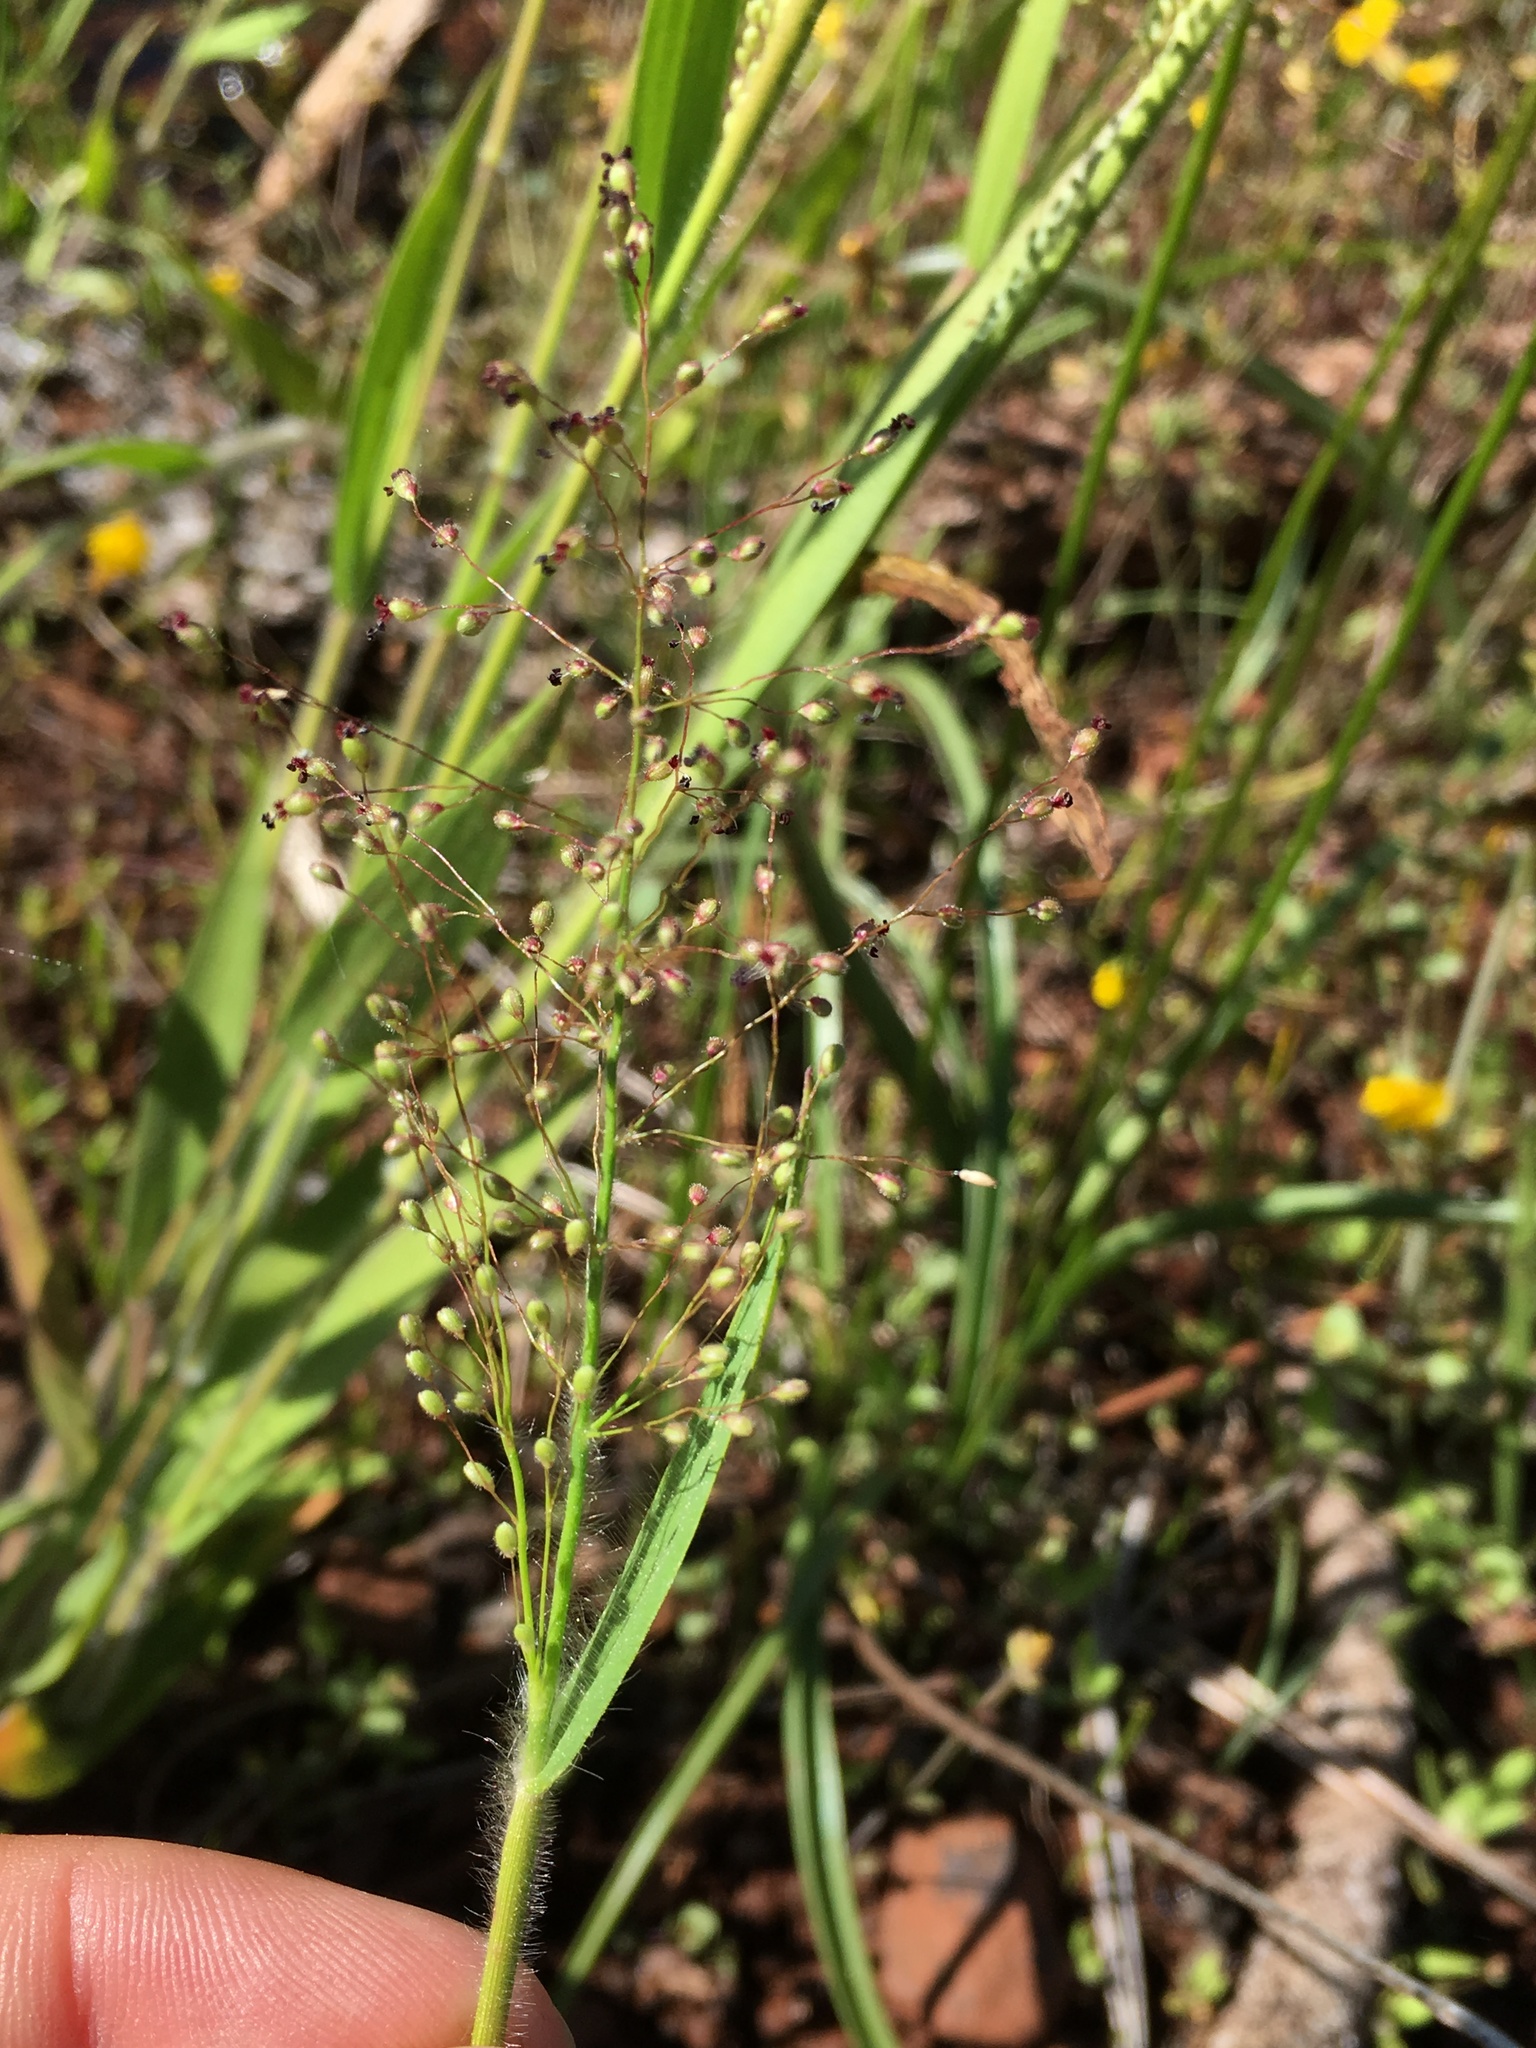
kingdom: Plantae
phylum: Tracheophyta
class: Liliopsida
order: Poales
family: Poaceae
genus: Dichanthelium
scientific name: Dichanthelium lanuginosum
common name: Woolly panicgrass
